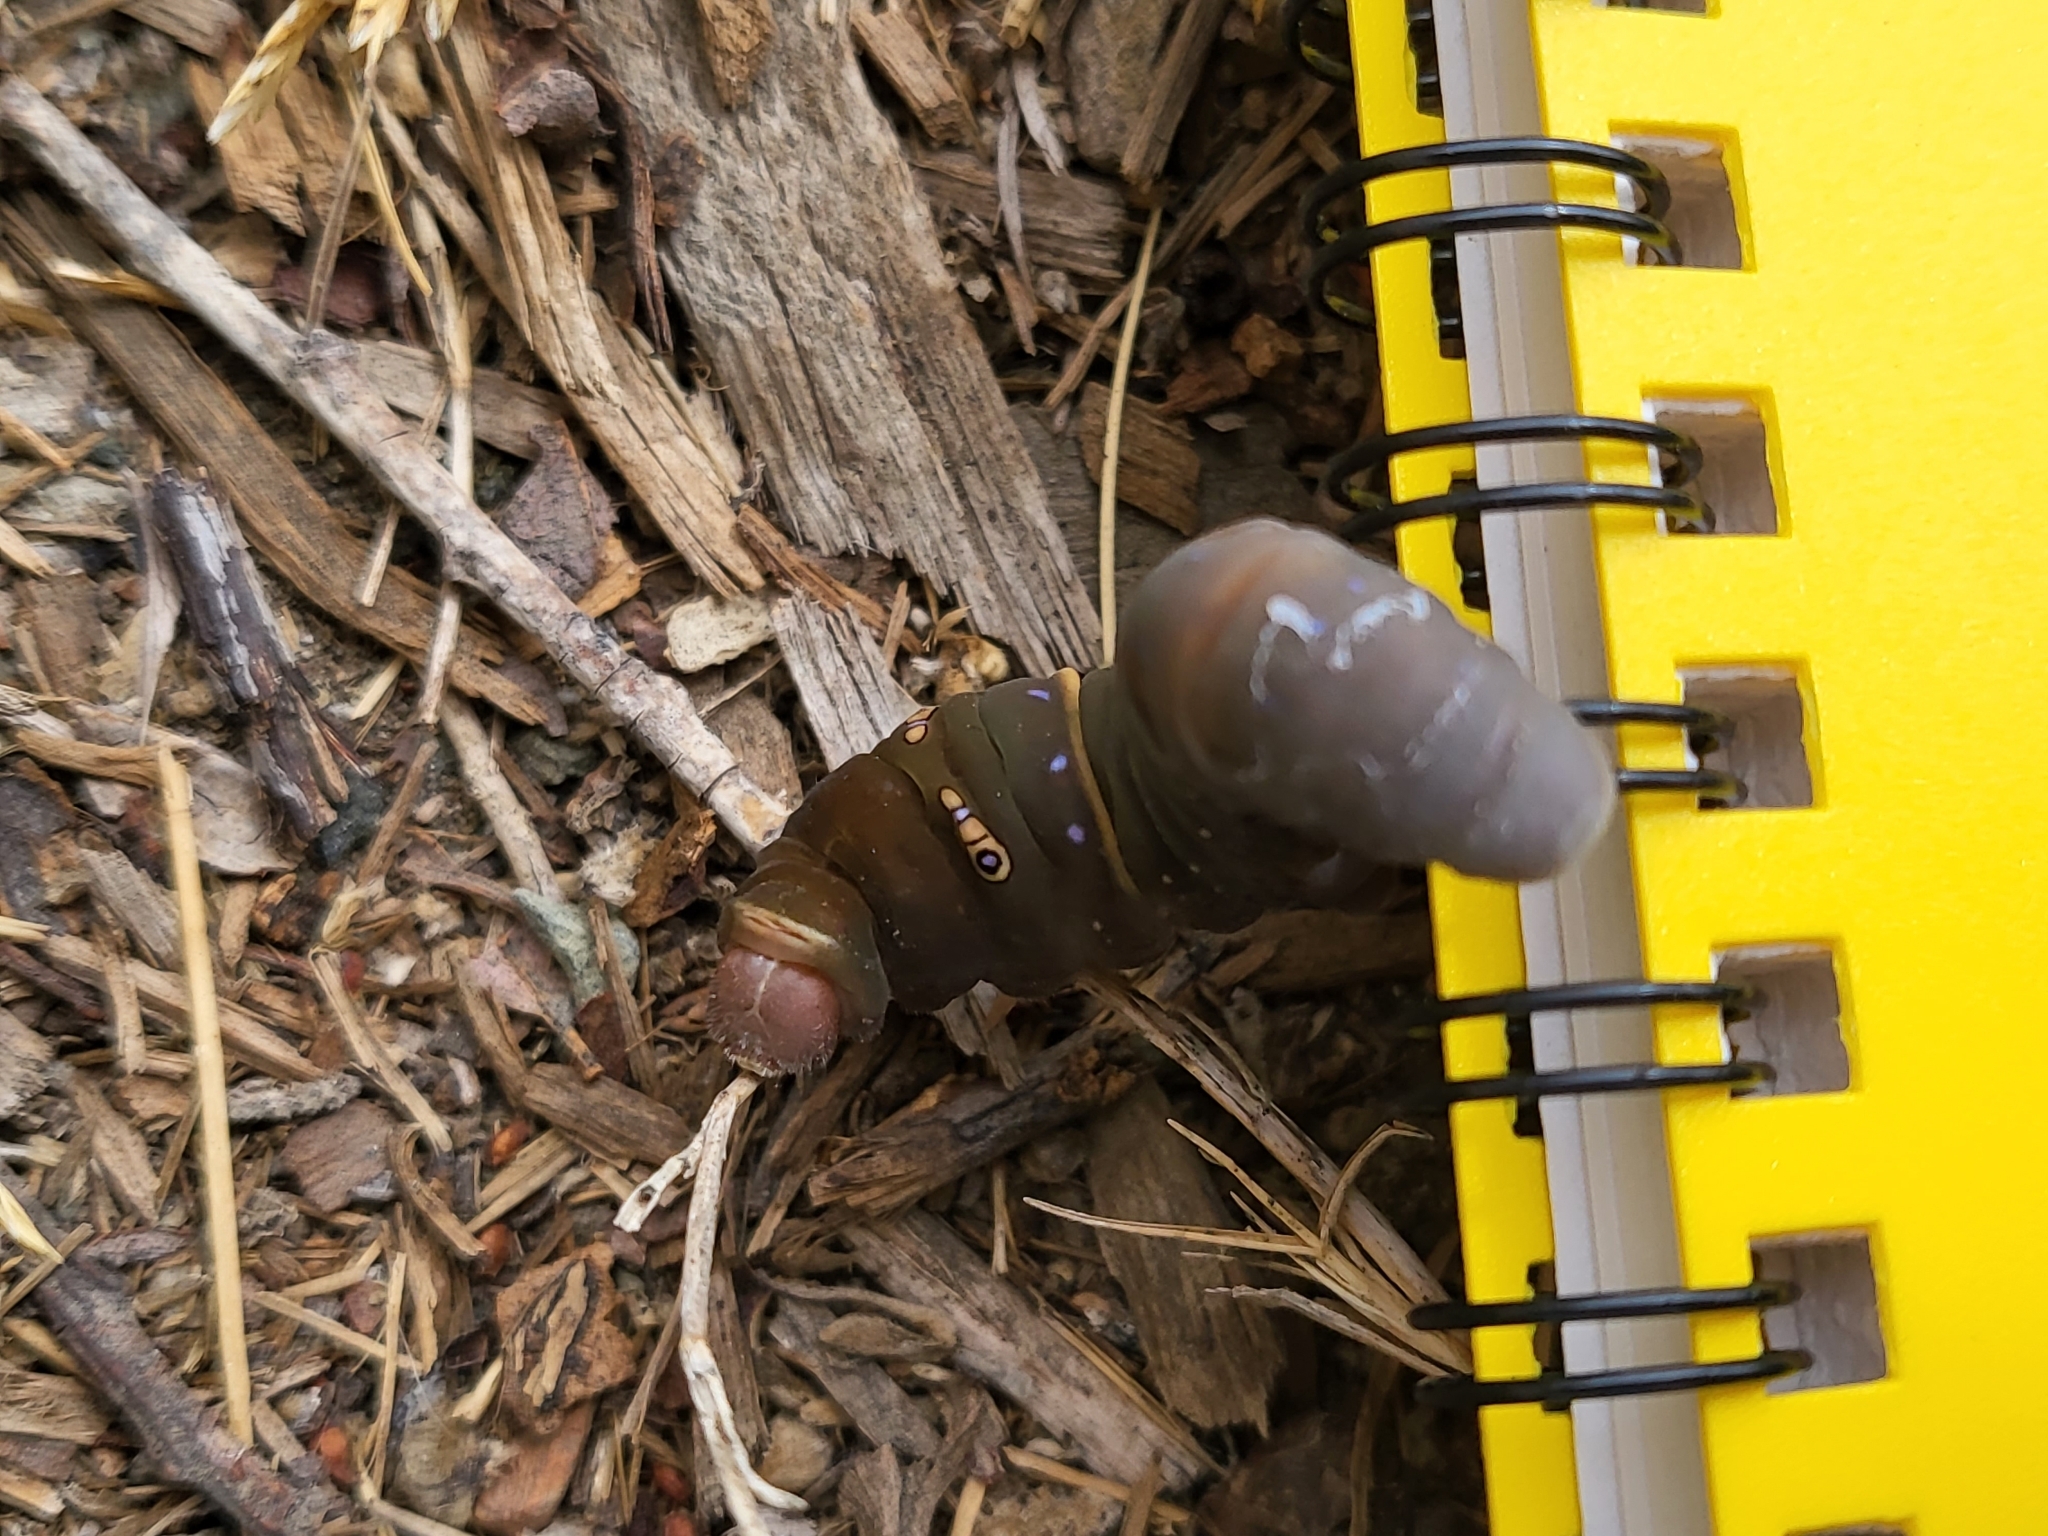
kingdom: Animalia
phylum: Arthropoda
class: Insecta
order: Lepidoptera
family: Papilionidae
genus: Papilio
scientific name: Papilio rutulus
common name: Western tiger swallowtail
